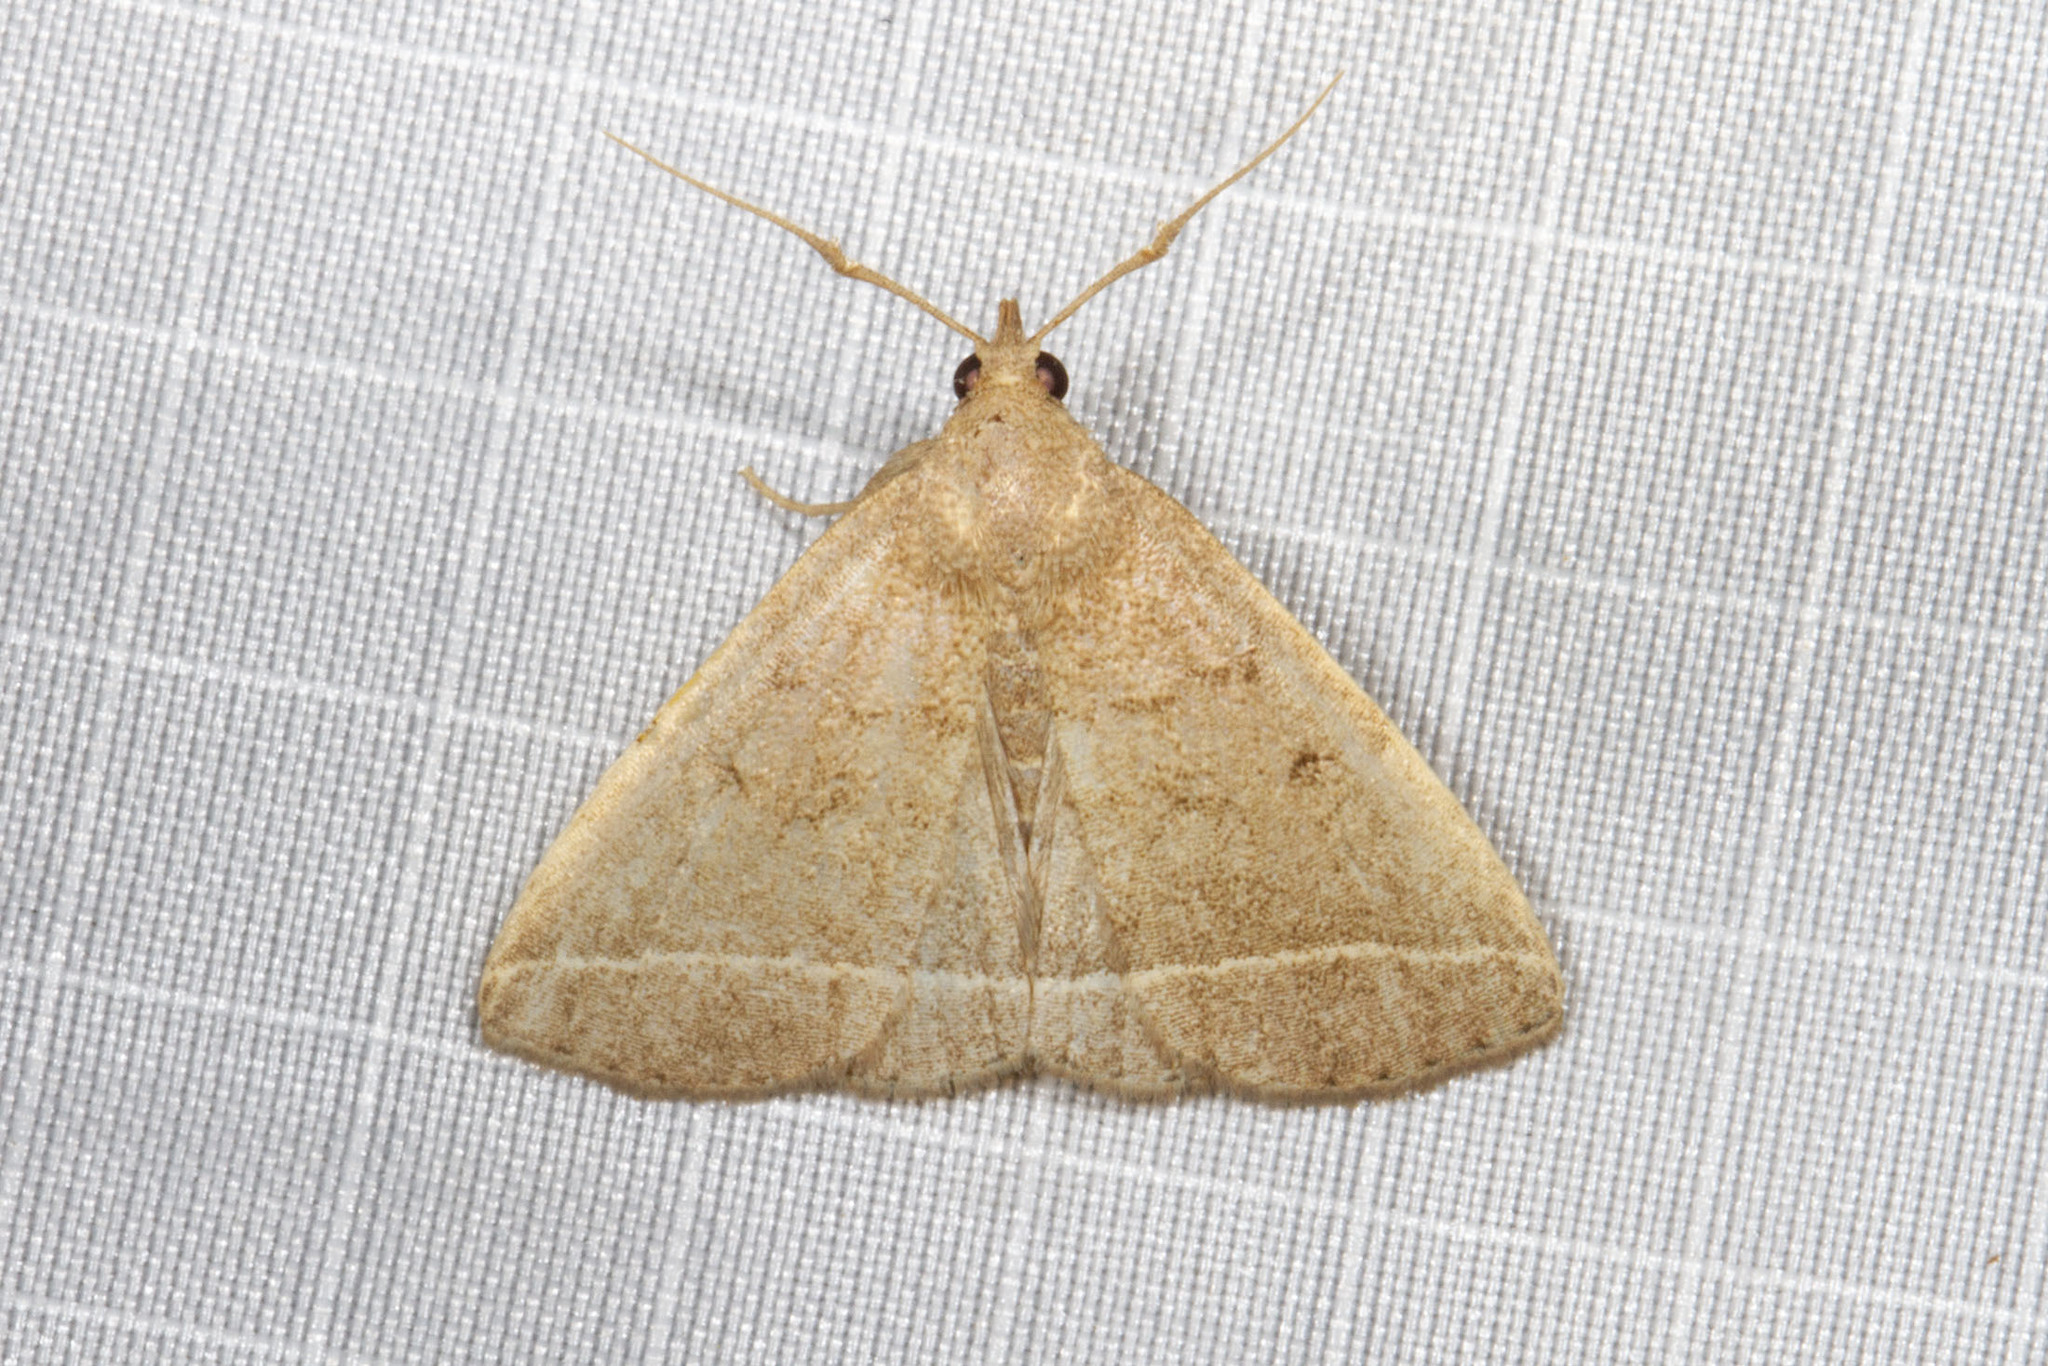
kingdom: Animalia
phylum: Arthropoda
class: Insecta
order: Lepidoptera
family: Erebidae
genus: Zanclognatha
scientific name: Zanclognatha jacchusalis
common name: Yellowish zanclognatha
